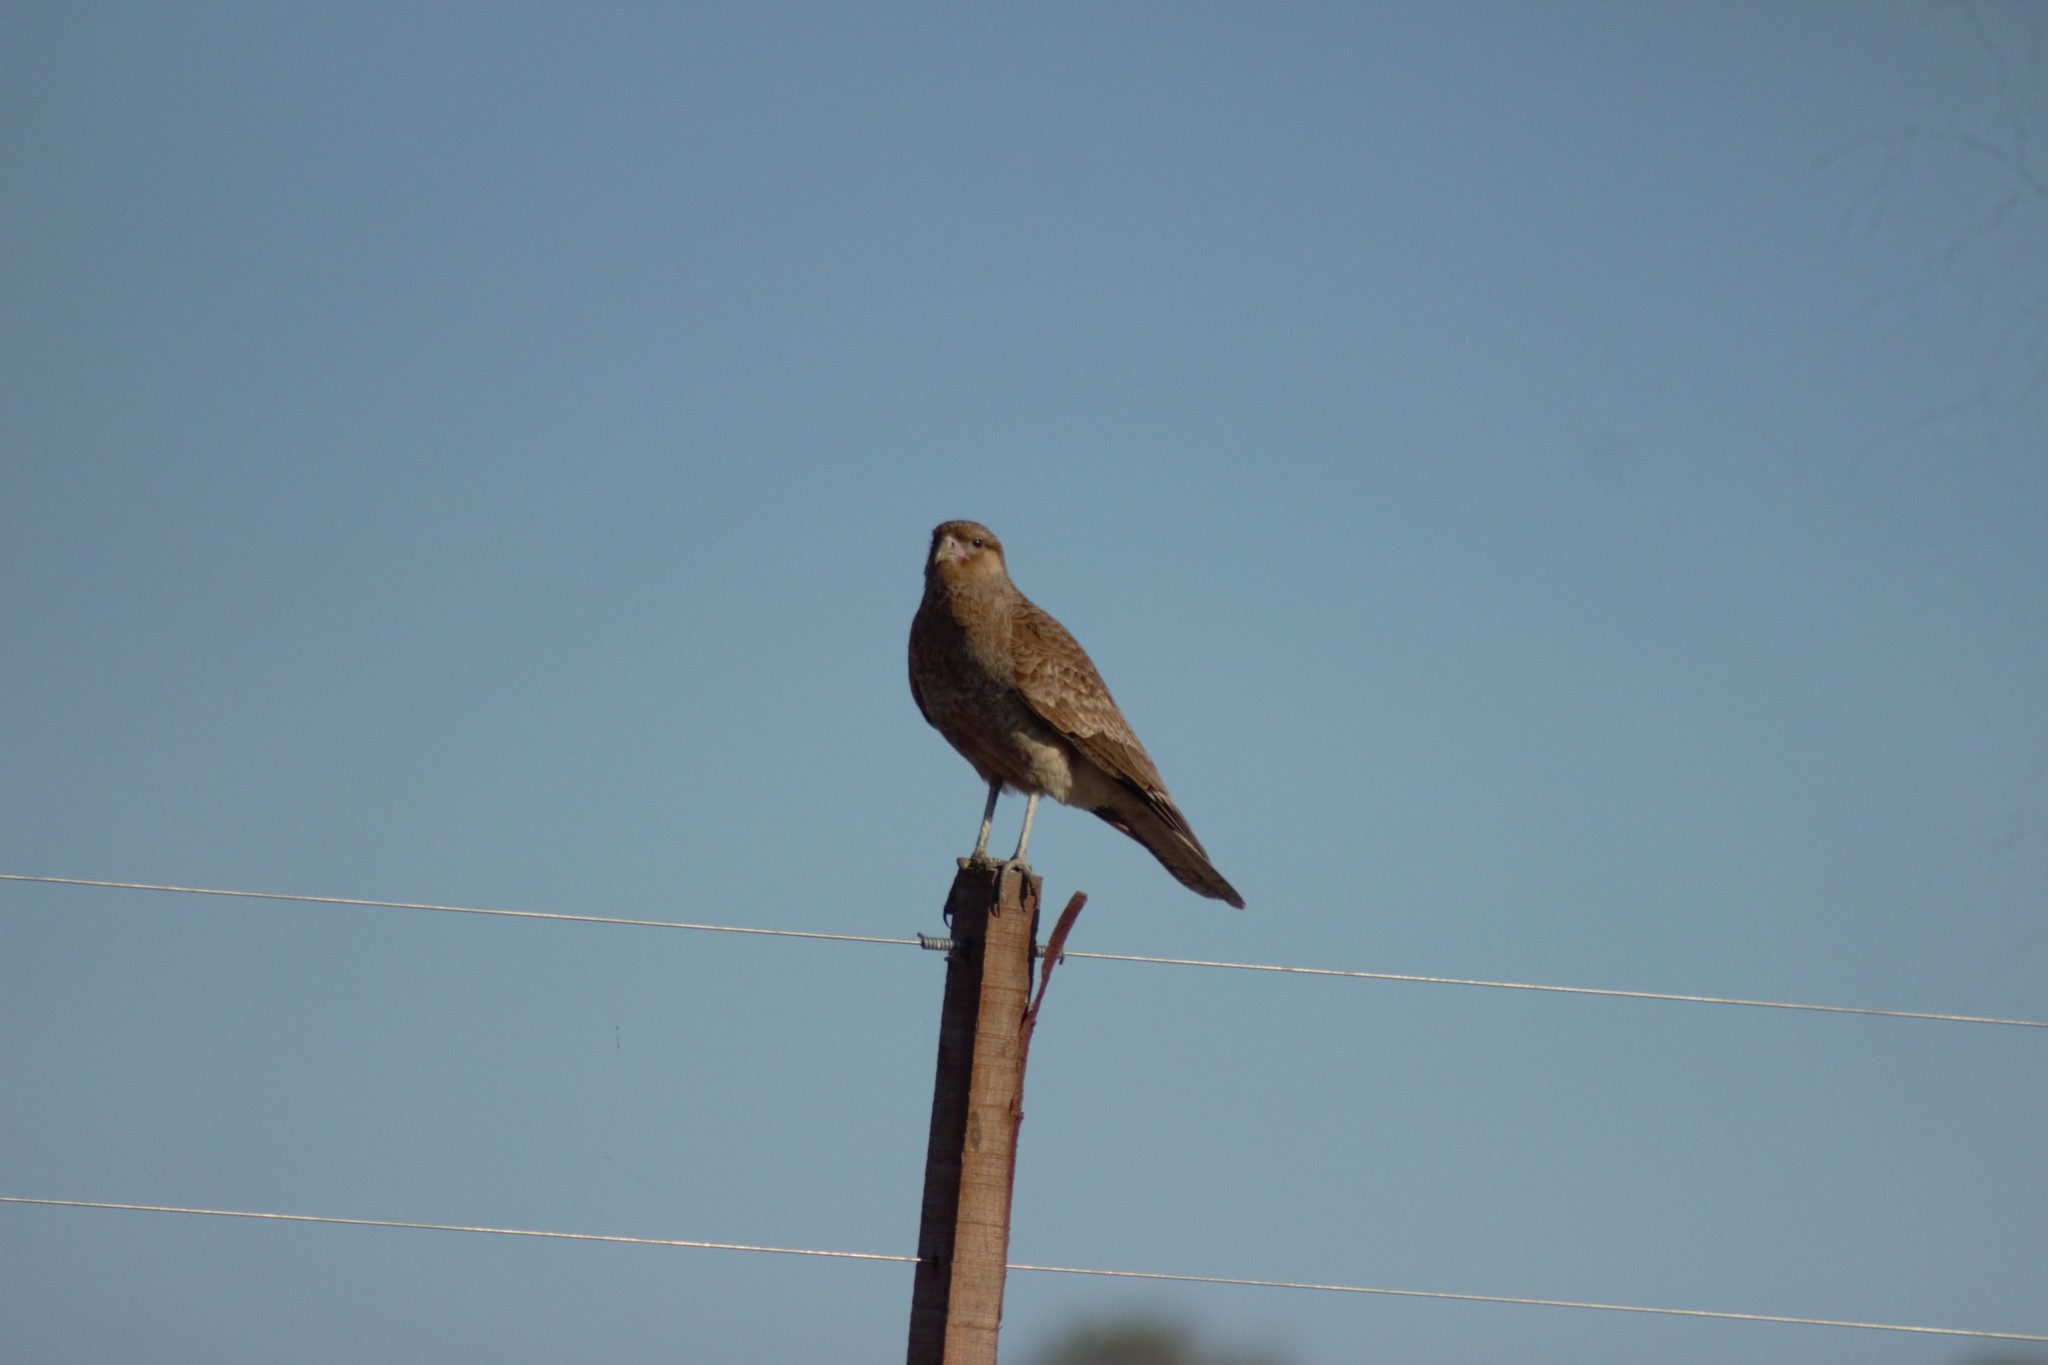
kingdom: Animalia
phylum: Chordata
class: Aves
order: Falconiformes
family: Falconidae
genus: Daptrius
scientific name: Daptrius
